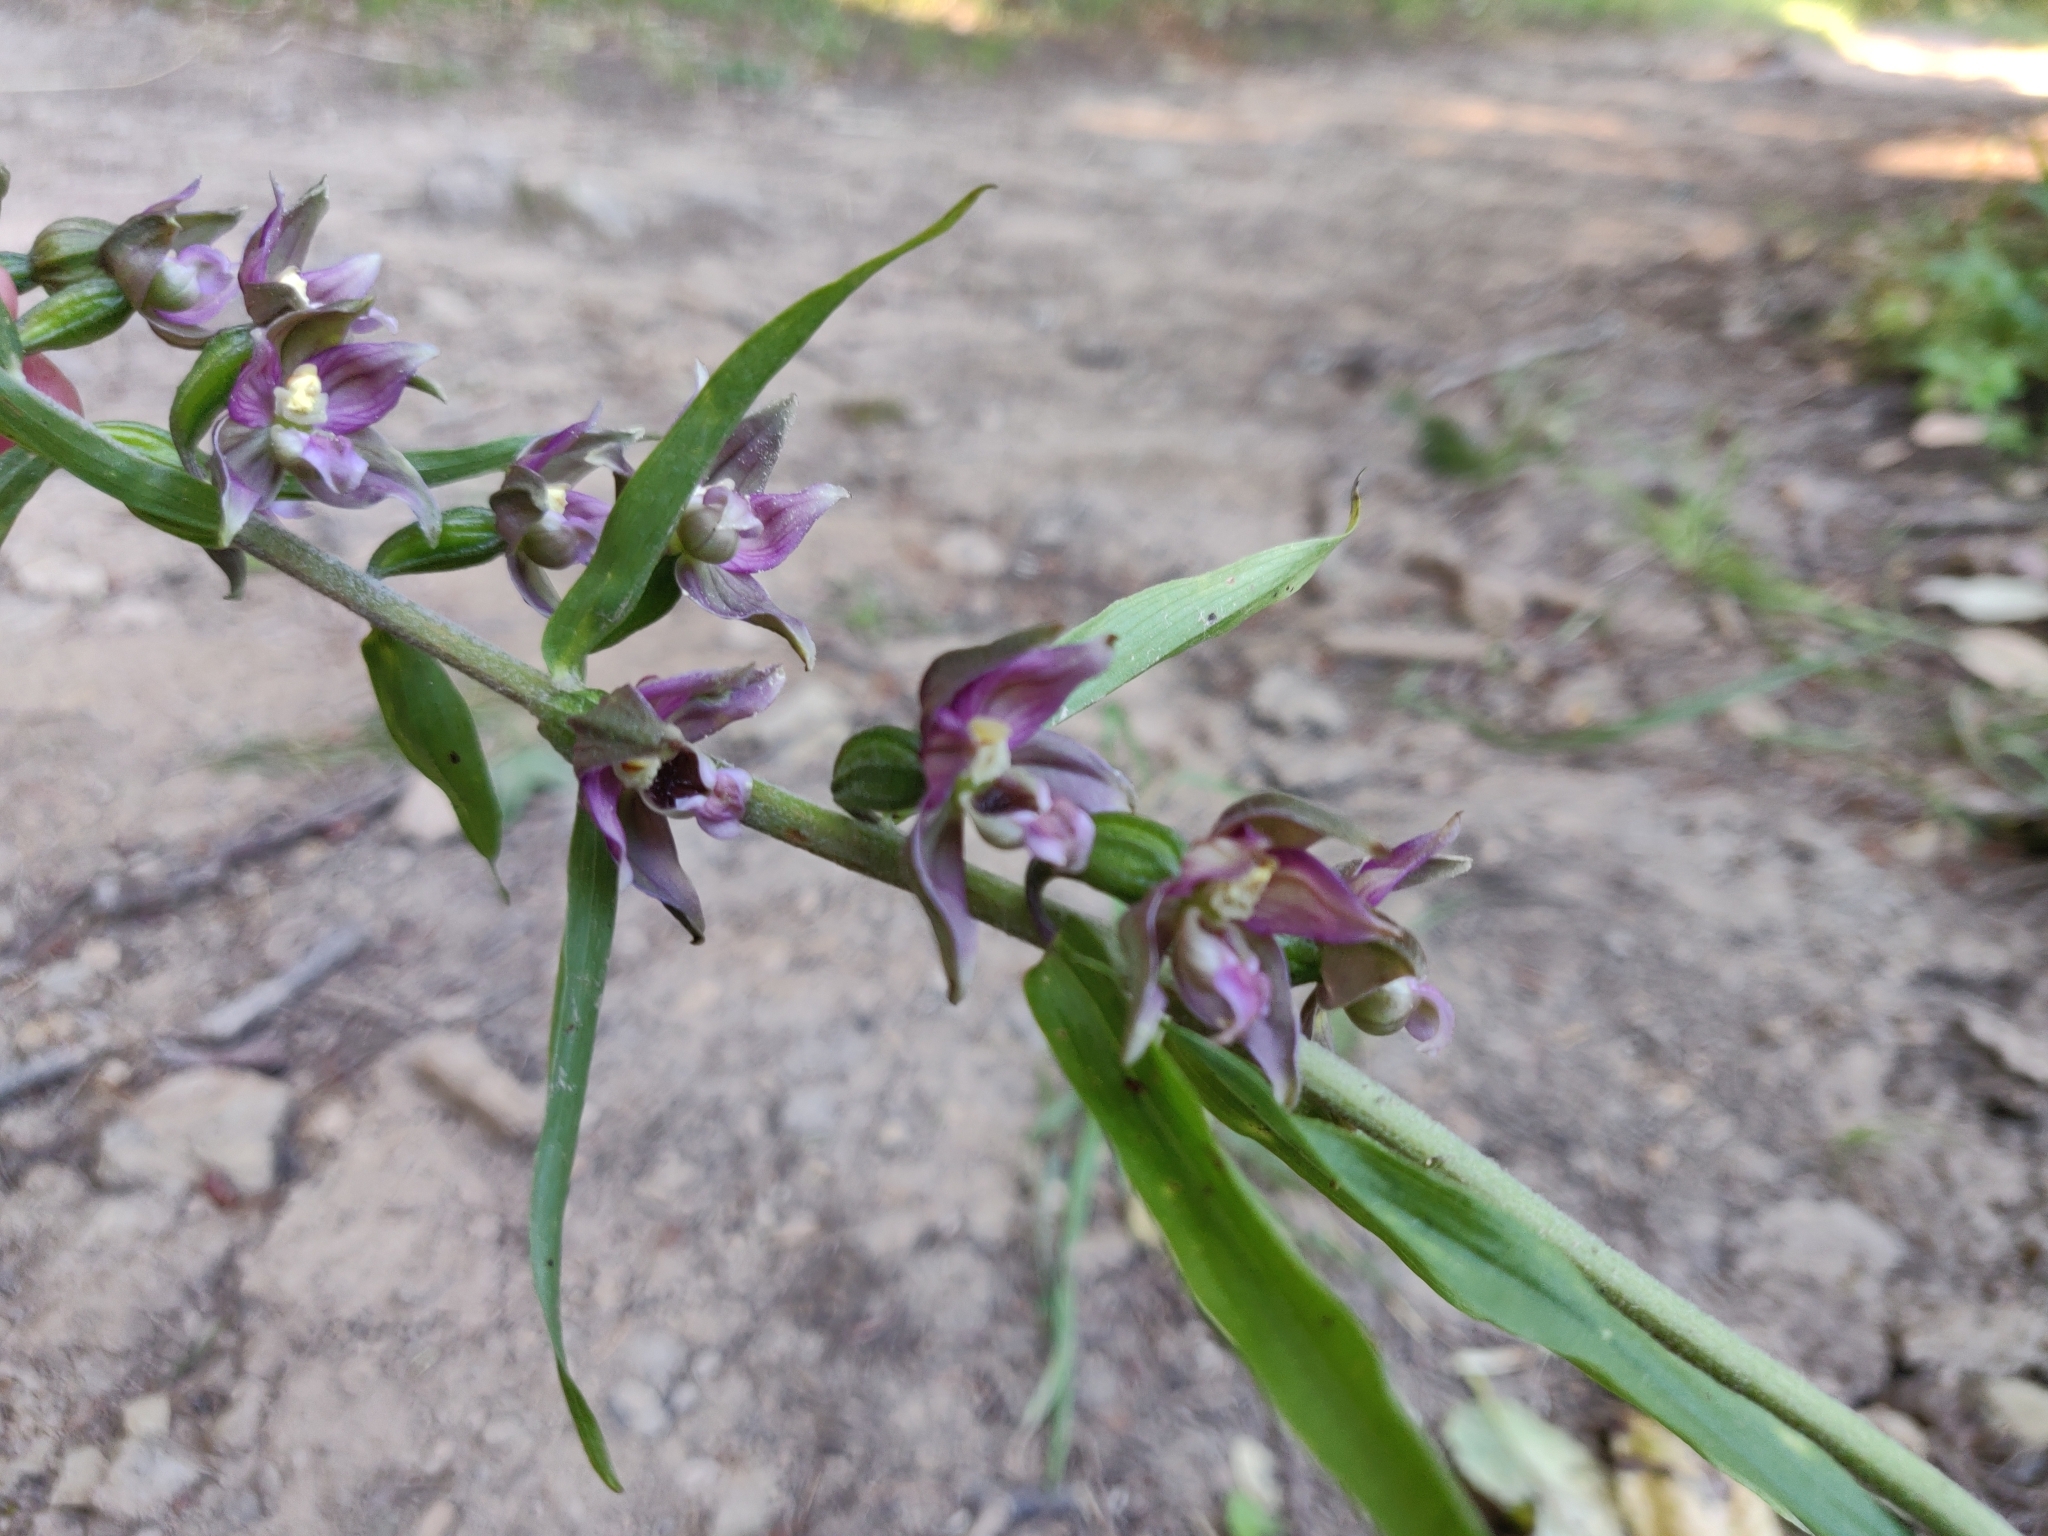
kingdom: Plantae
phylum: Tracheophyta
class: Liliopsida
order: Asparagales
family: Orchidaceae
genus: Epipactis
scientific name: Epipactis helleborine
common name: Broad-leaved helleborine
